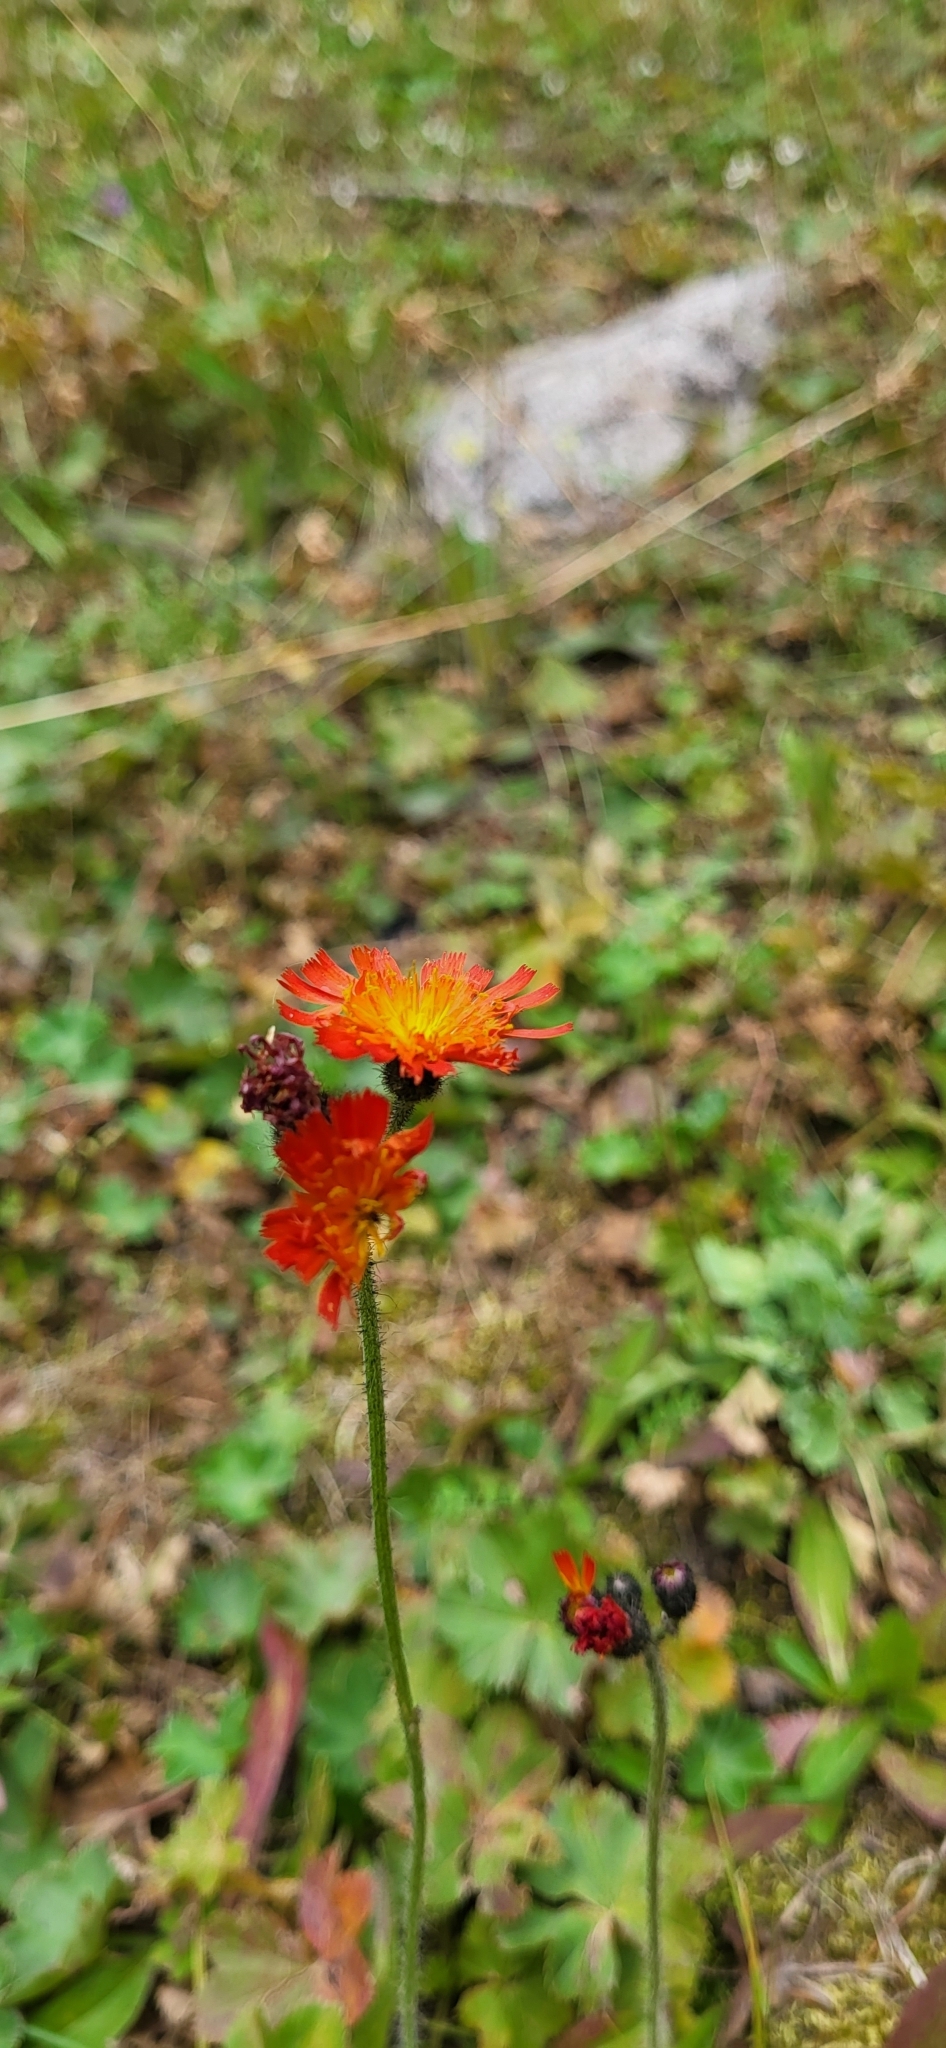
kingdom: Plantae
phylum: Tracheophyta
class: Magnoliopsida
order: Asterales
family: Asteraceae
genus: Pilosella
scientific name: Pilosella aurantiaca
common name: Fox-and-cubs
